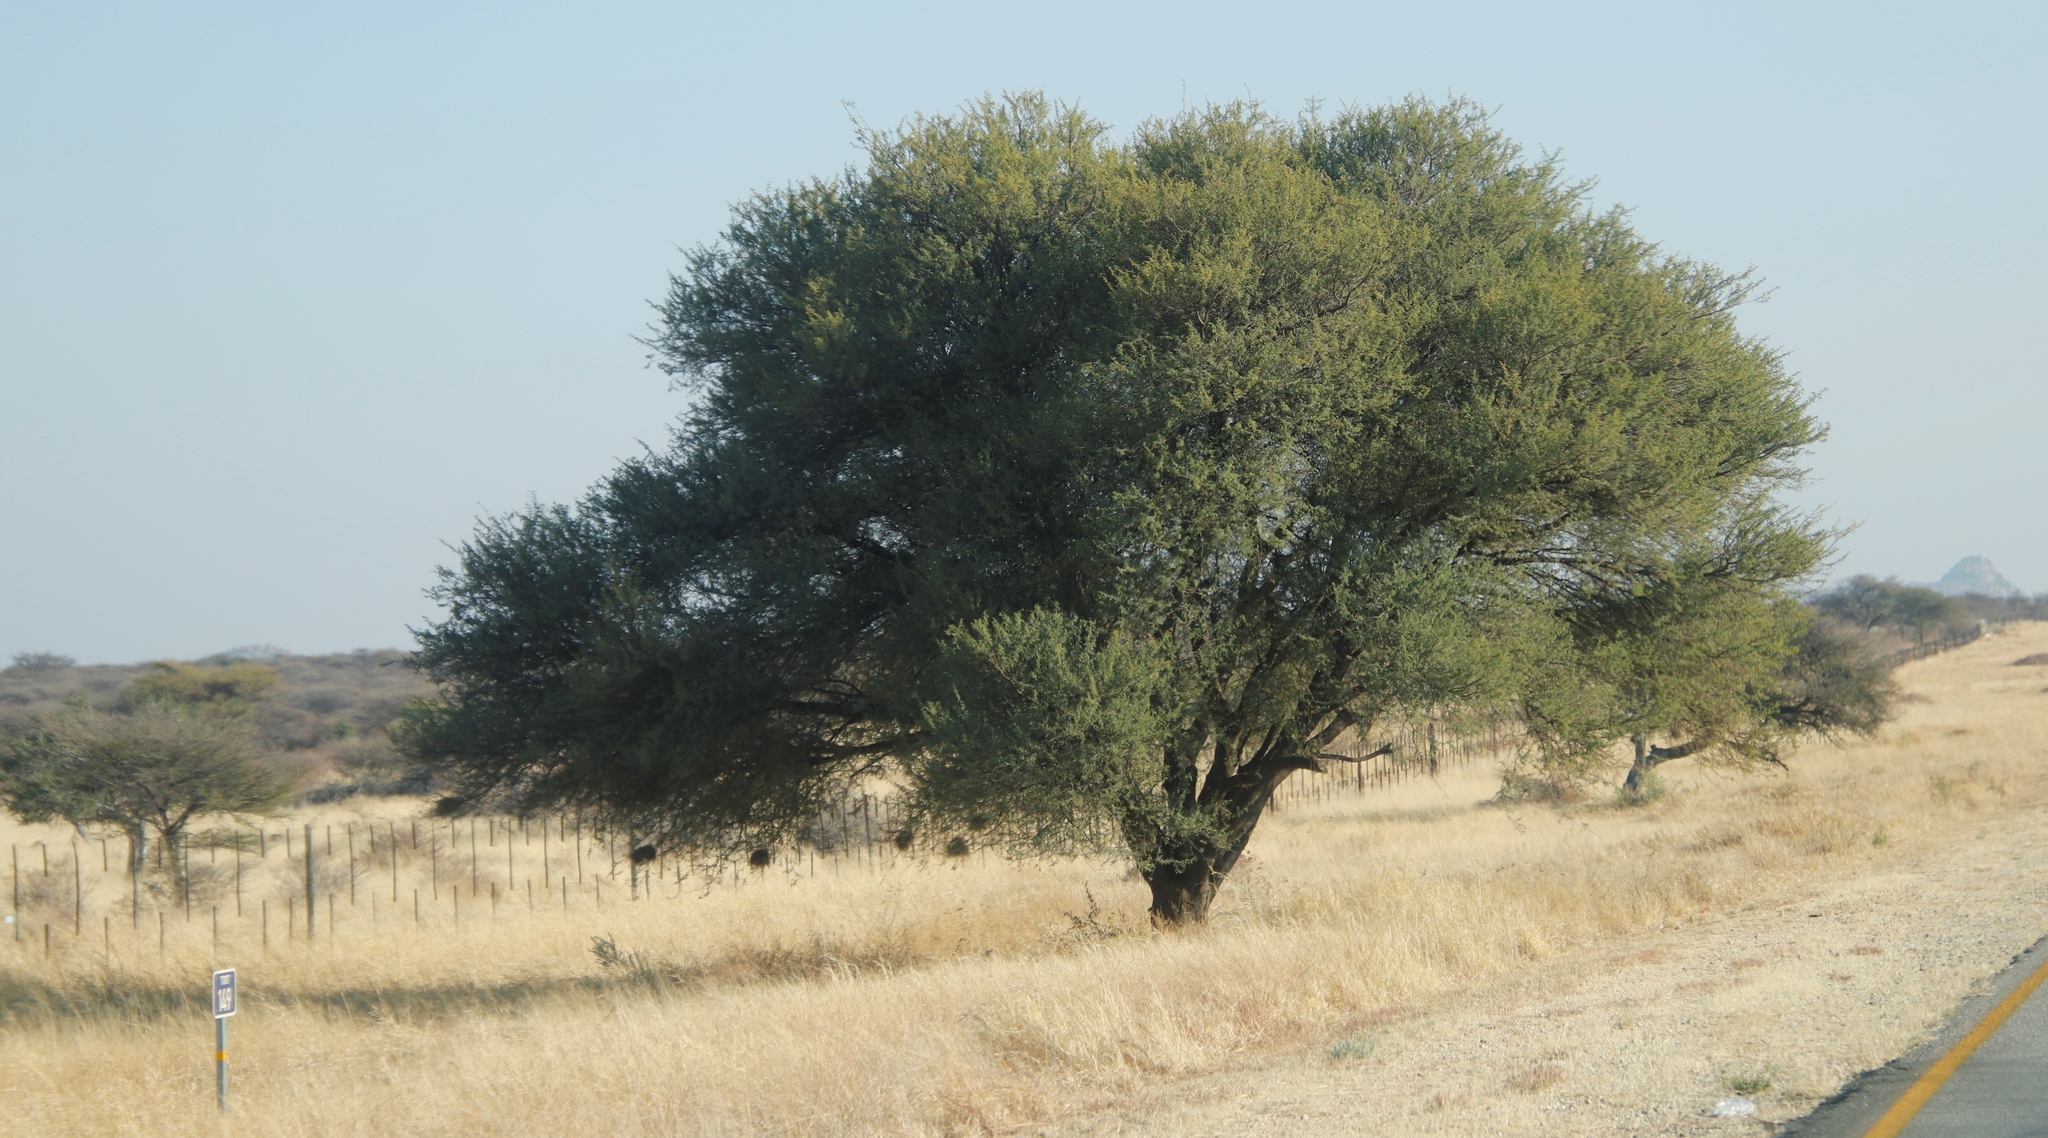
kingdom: Animalia
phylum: Chordata
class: Aves
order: Passeriformes
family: Passeridae
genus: Plocepasser
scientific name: Plocepasser mahali
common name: White-browed sparrow-weaver
